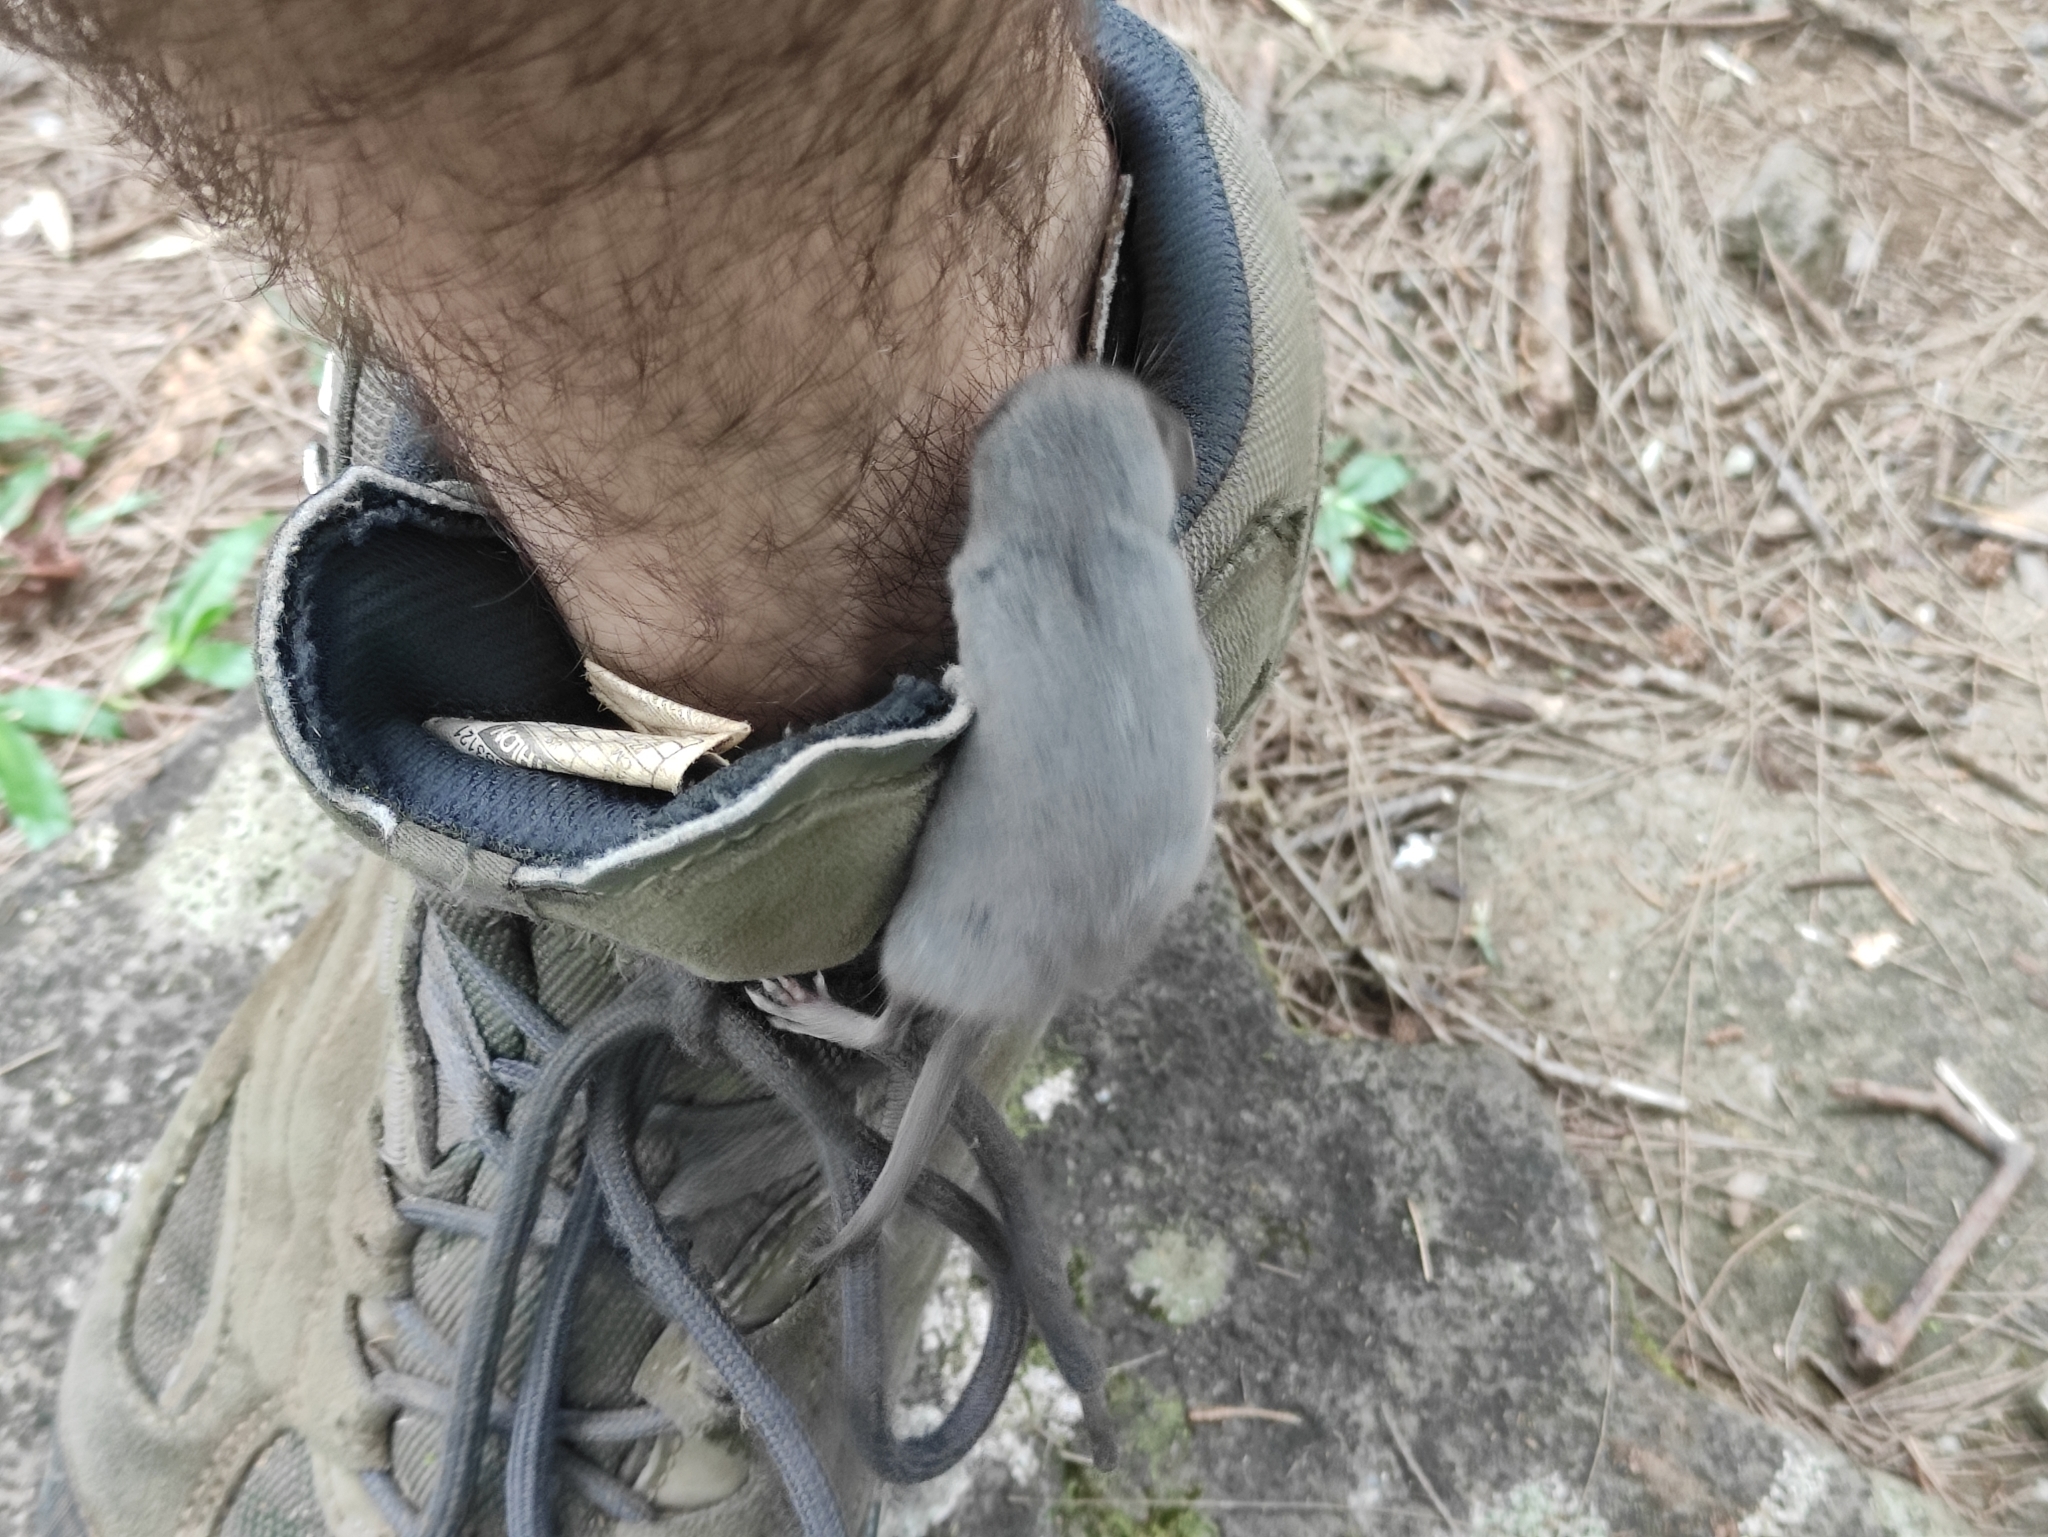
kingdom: Animalia
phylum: Chordata
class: Mammalia
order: Soricomorpha
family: Soricidae
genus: Suncus
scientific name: Suncus murinus
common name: Asian house shrew
